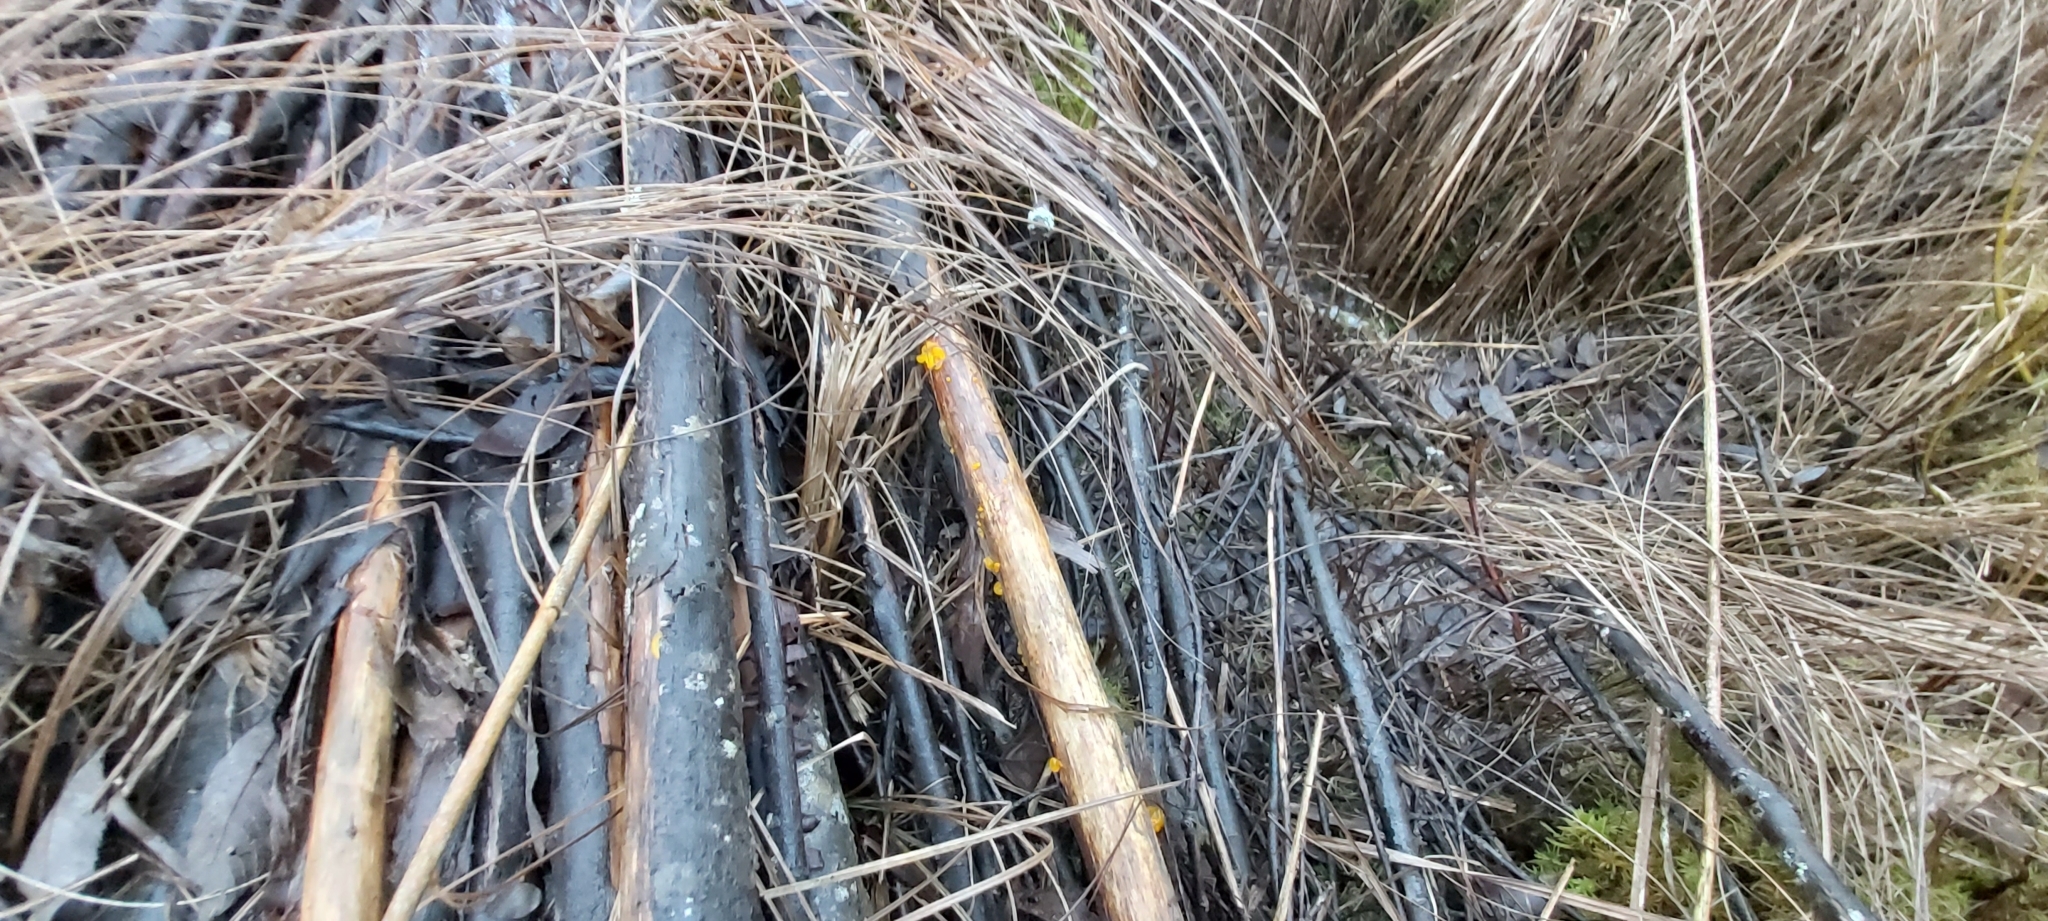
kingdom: Fungi
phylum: Basidiomycota
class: Tremellomycetes
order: Tremellales
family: Tremellaceae
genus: Tremella
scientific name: Tremella mesenterica
